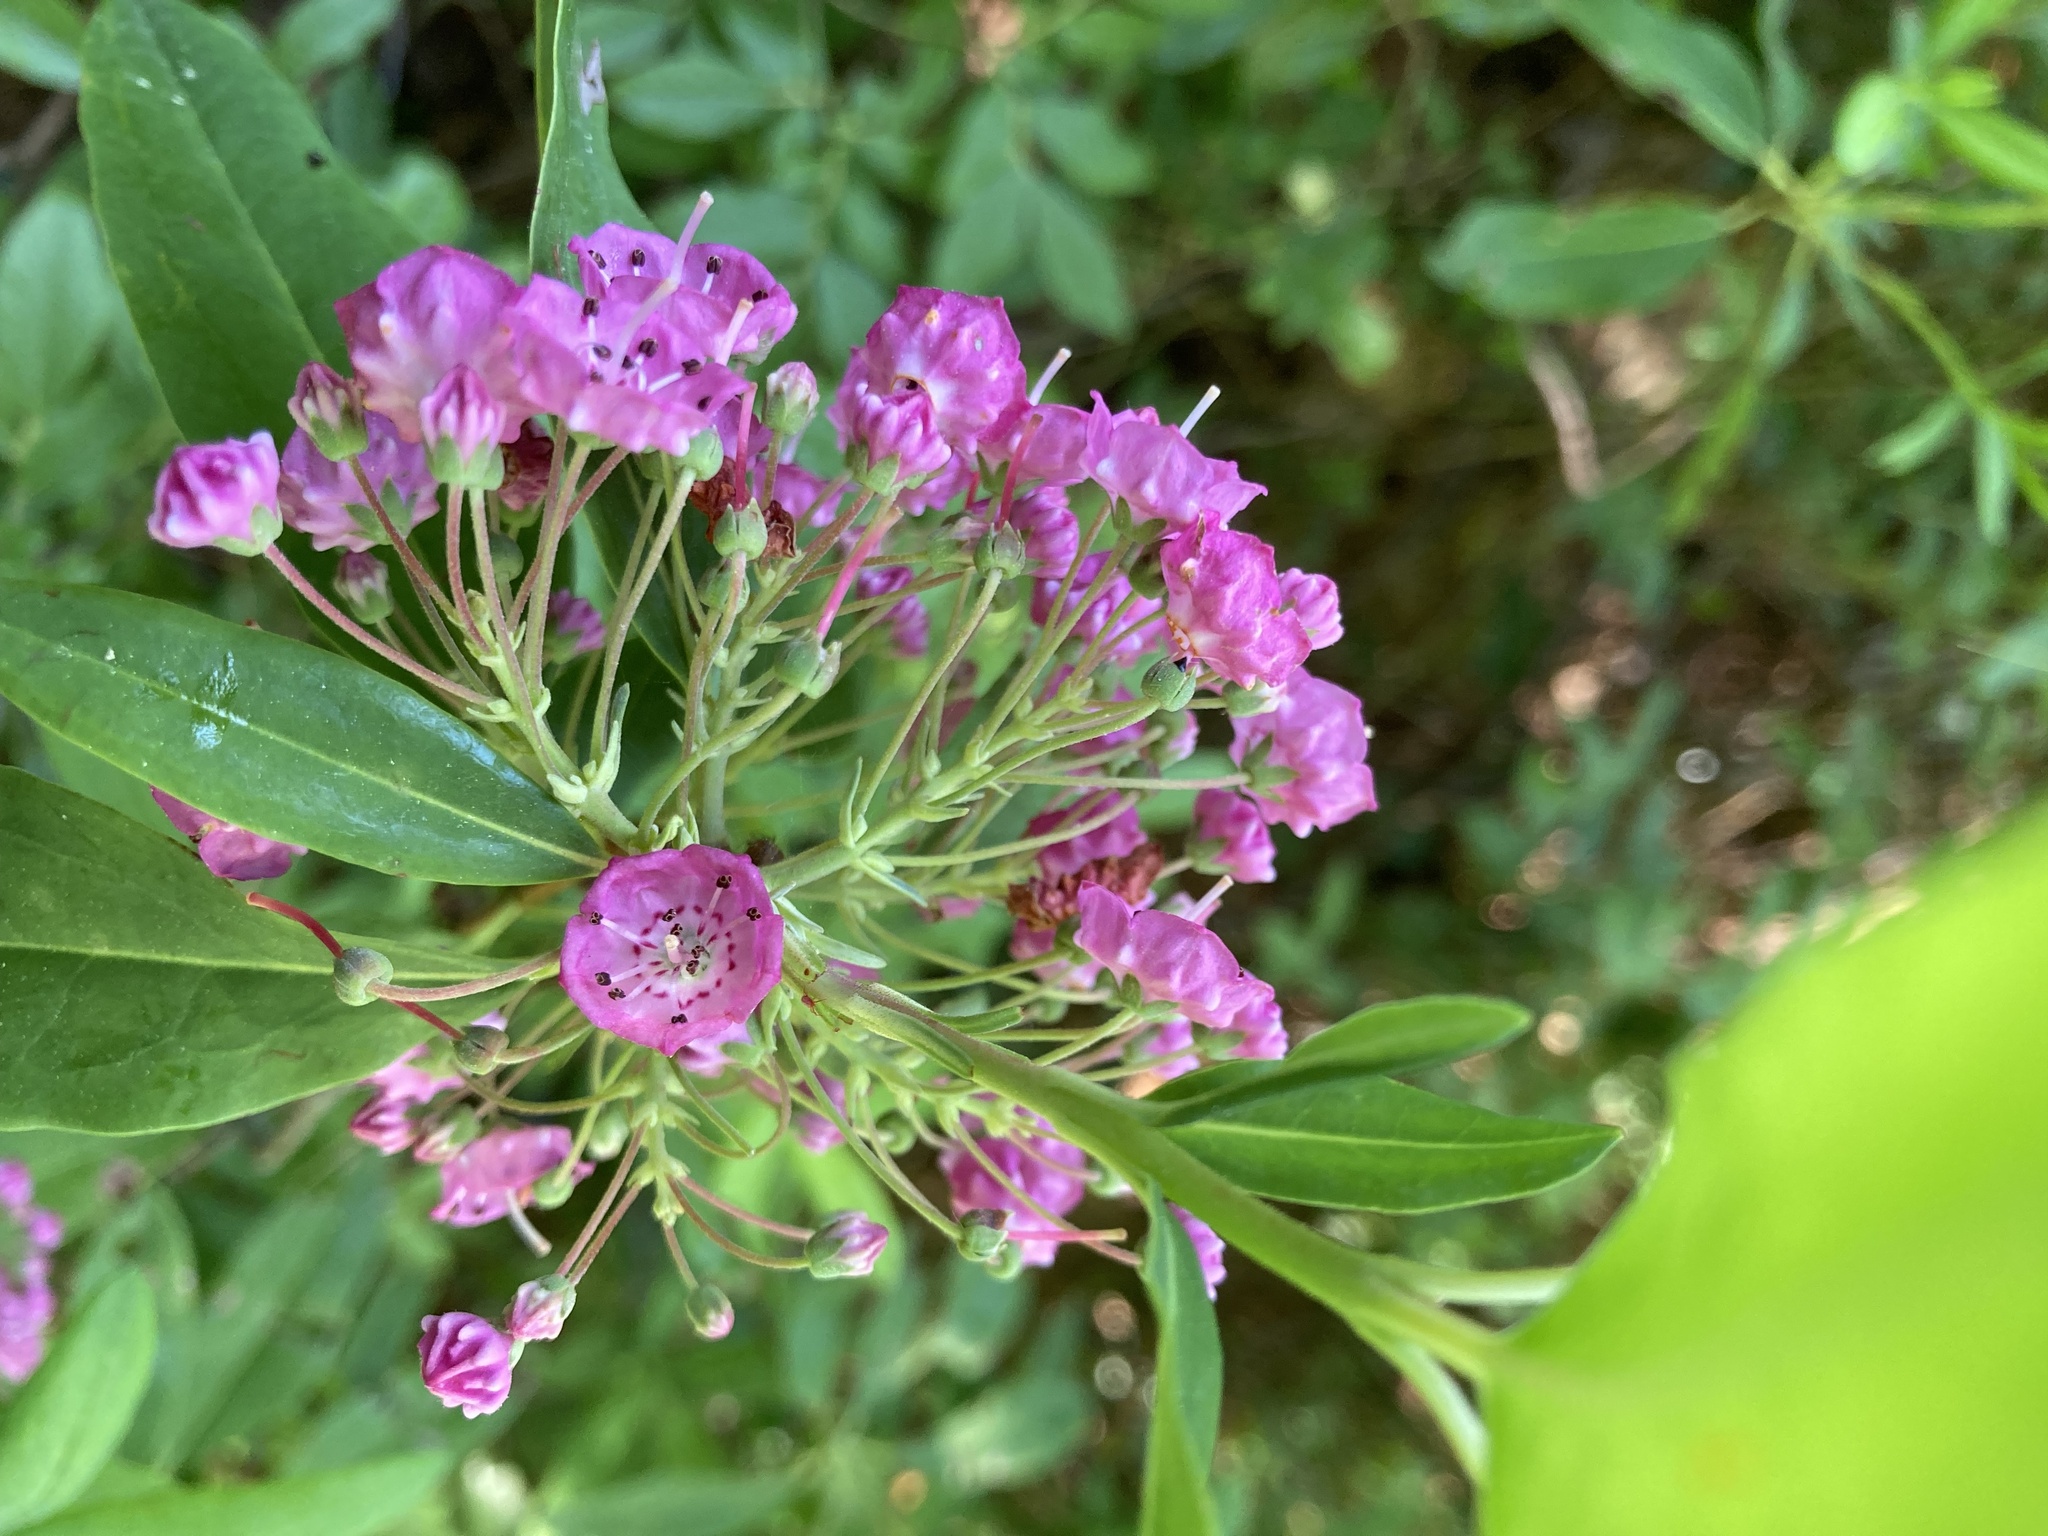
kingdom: Plantae
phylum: Tracheophyta
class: Magnoliopsida
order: Ericales
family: Ericaceae
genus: Kalmia
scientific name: Kalmia angustifolia
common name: Sheep-laurel
